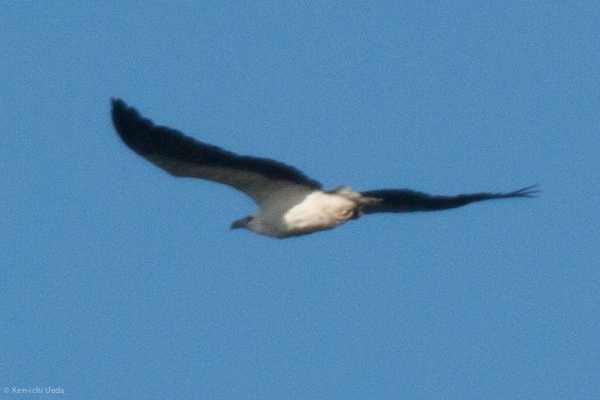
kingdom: Animalia
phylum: Chordata
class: Aves
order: Accipitriformes
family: Accipitridae
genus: Haliaeetus
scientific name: Haliaeetus leucogaster
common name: White-bellied sea eagle
